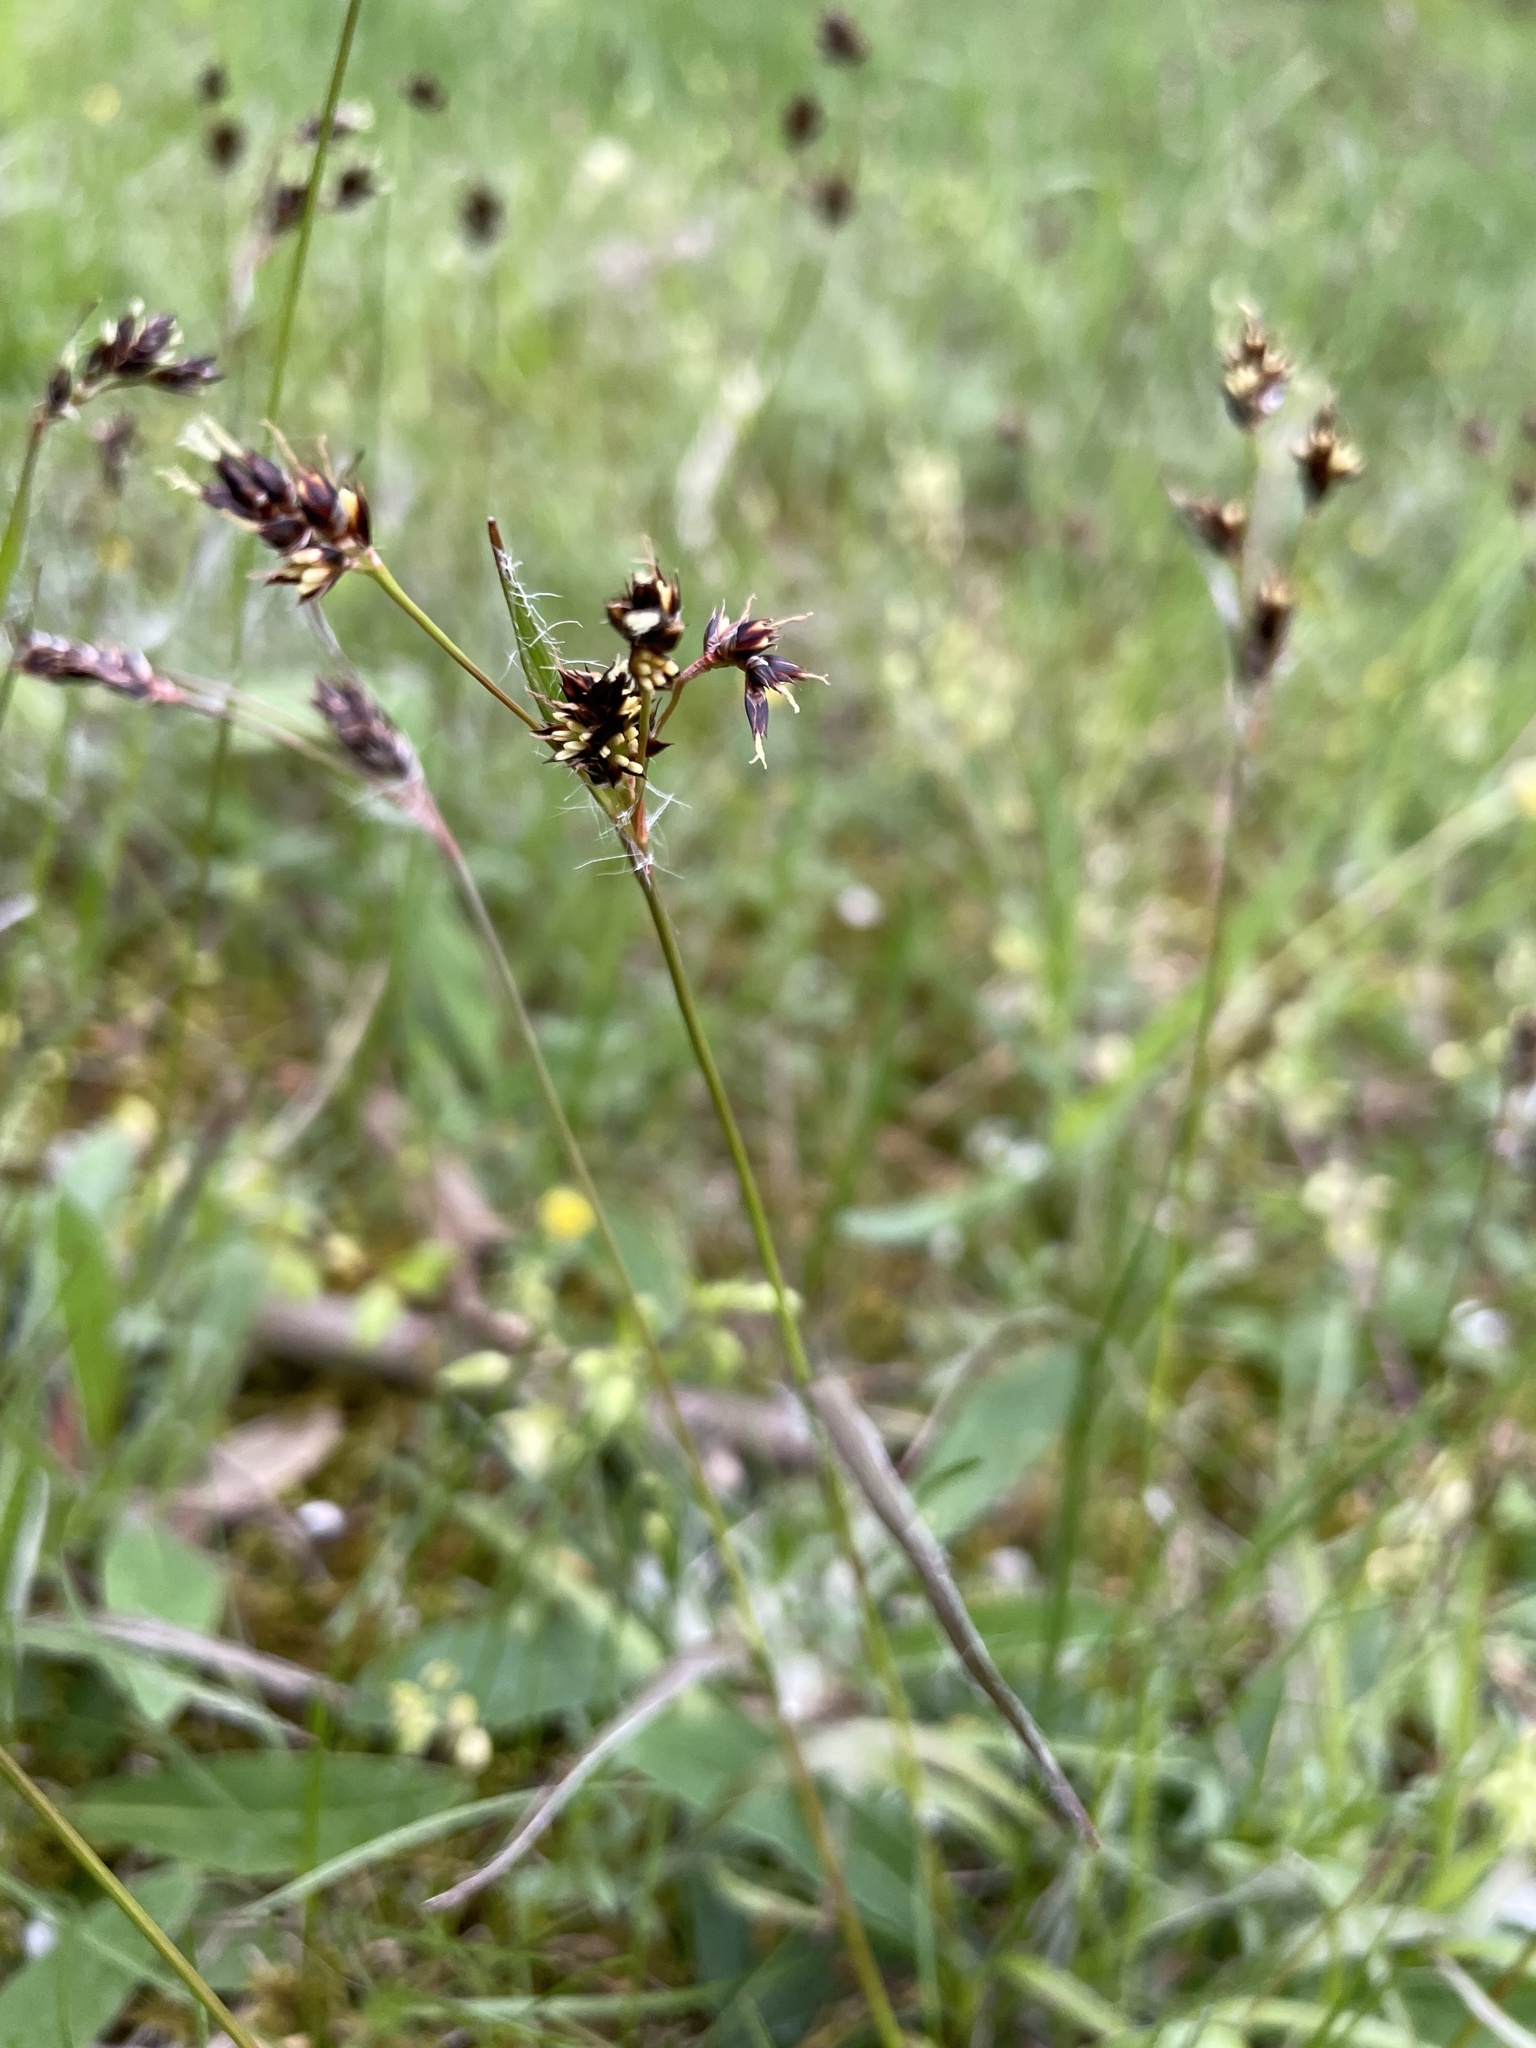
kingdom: Plantae
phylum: Tracheophyta
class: Liliopsida
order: Poales
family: Juncaceae
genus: Luzula
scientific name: Luzula campestris
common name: Field wood-rush
